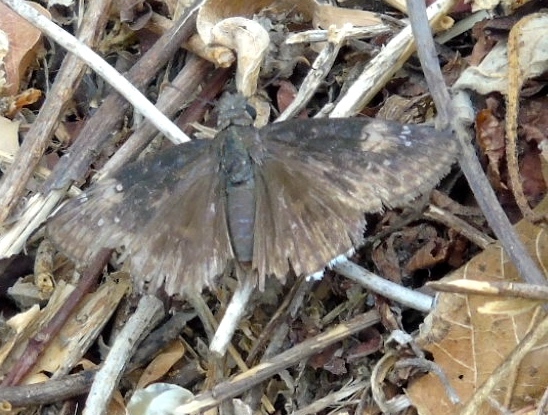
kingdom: Animalia
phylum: Arthropoda
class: Insecta
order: Lepidoptera
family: Hesperiidae
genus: Erynnis
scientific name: Erynnis
